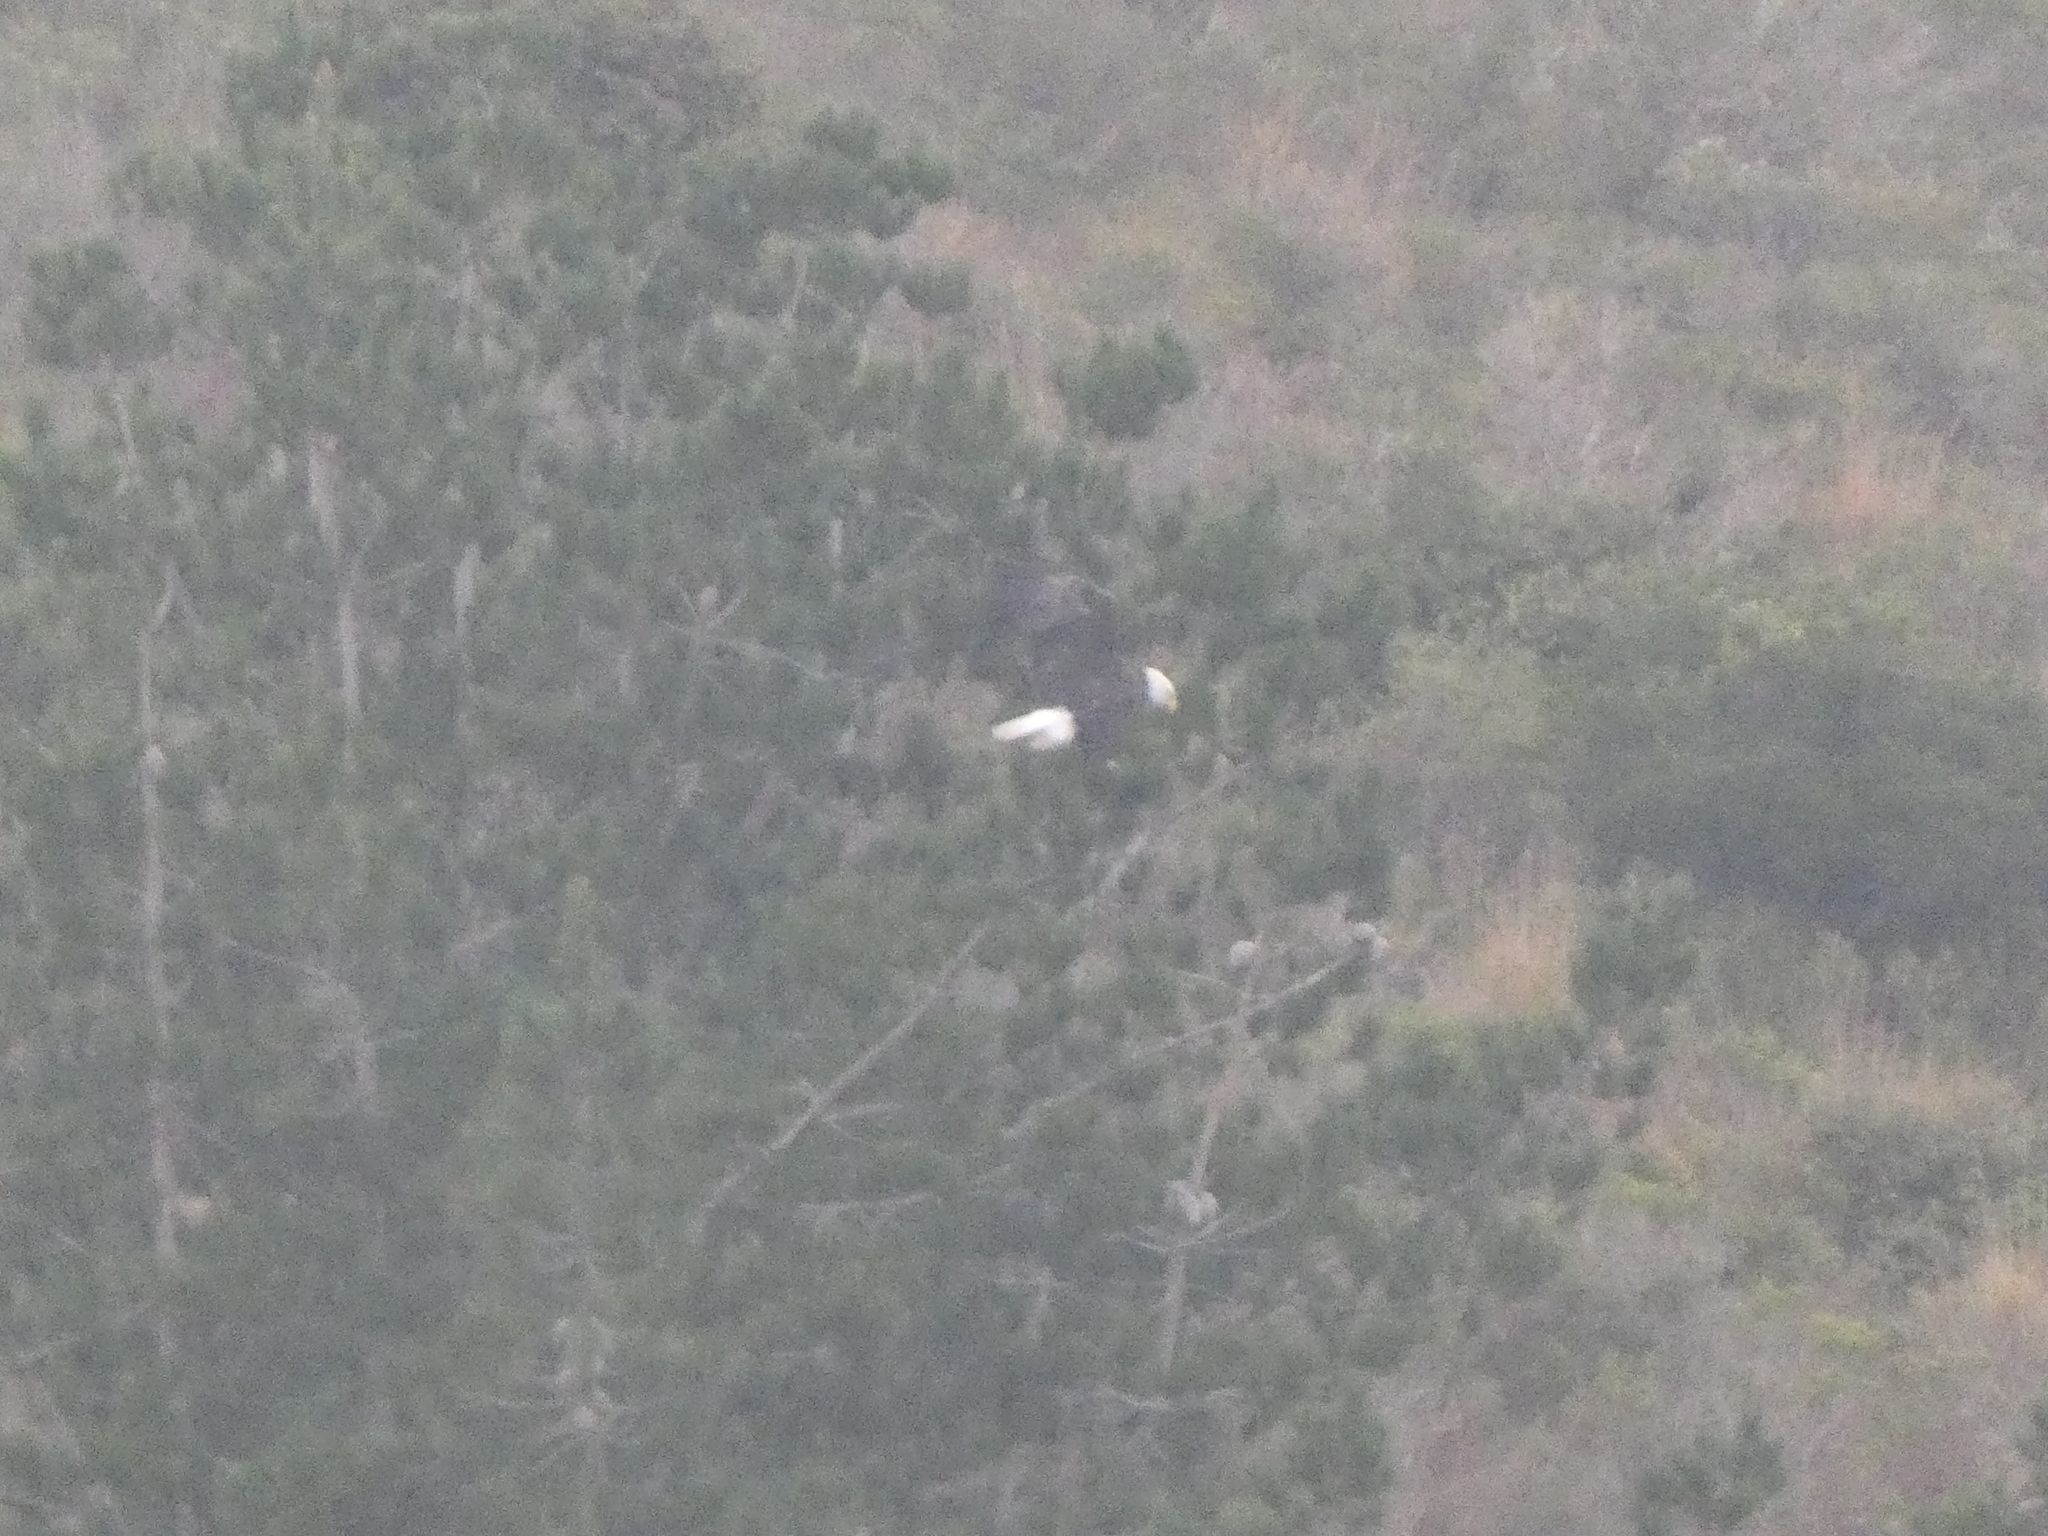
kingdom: Animalia
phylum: Chordata
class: Aves
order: Accipitriformes
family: Accipitridae
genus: Haliaeetus
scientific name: Haliaeetus leucocephalus
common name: Bald eagle
